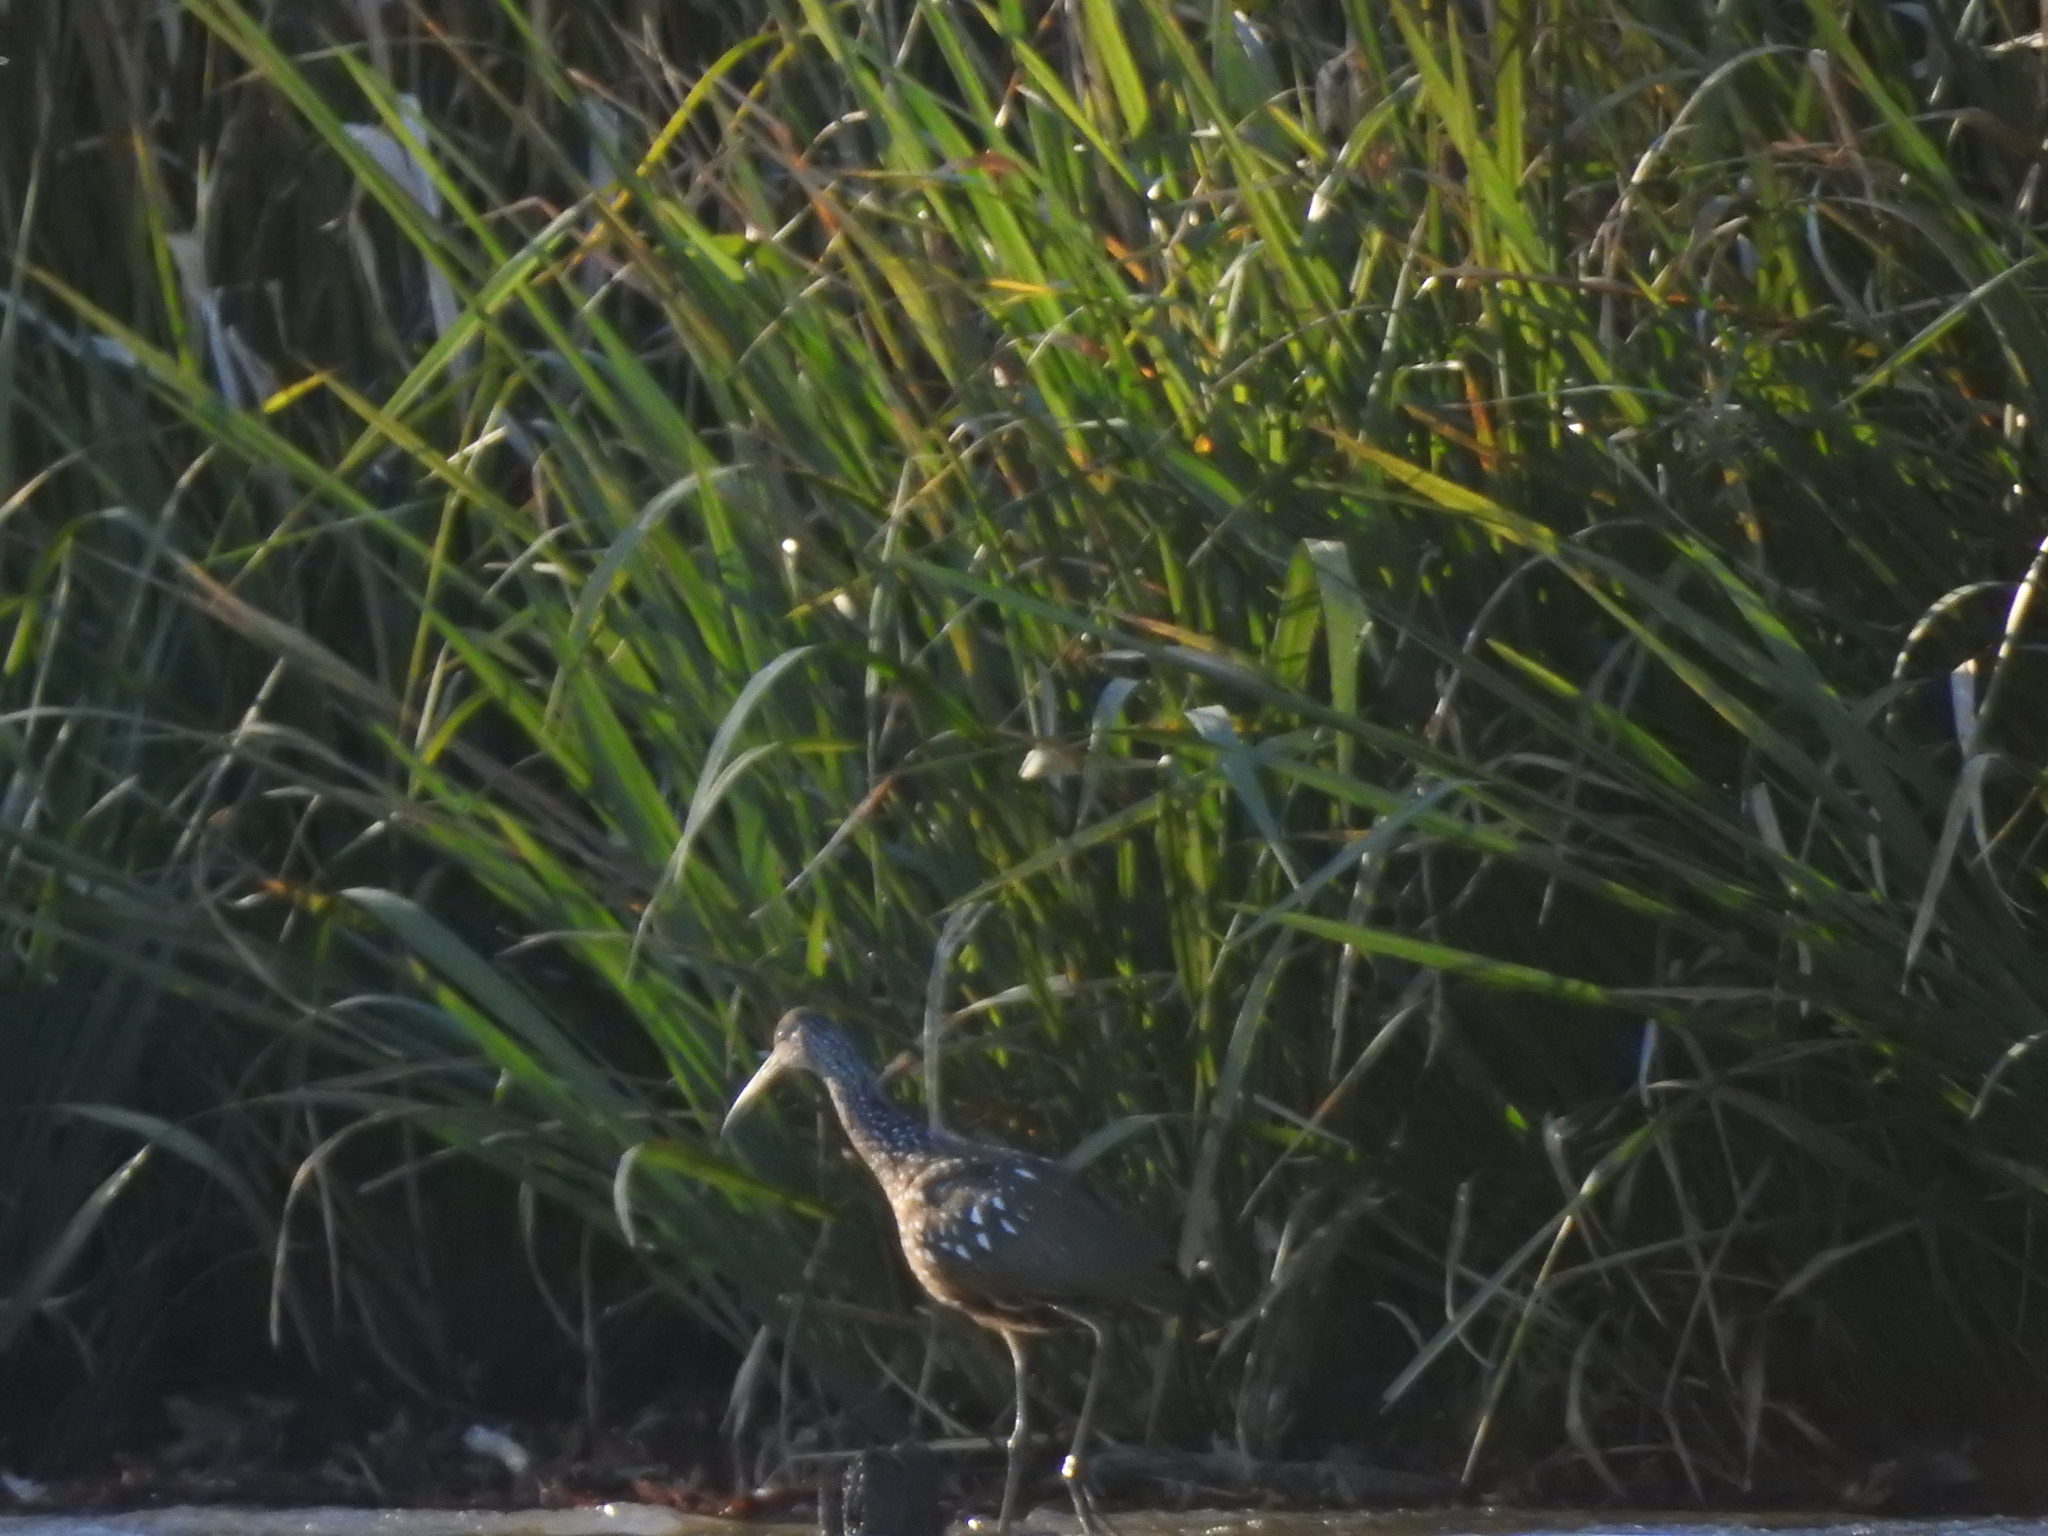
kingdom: Animalia
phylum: Chordata
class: Aves
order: Gruiformes
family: Aramidae
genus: Aramus
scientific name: Aramus guarauna
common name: Limpkin
